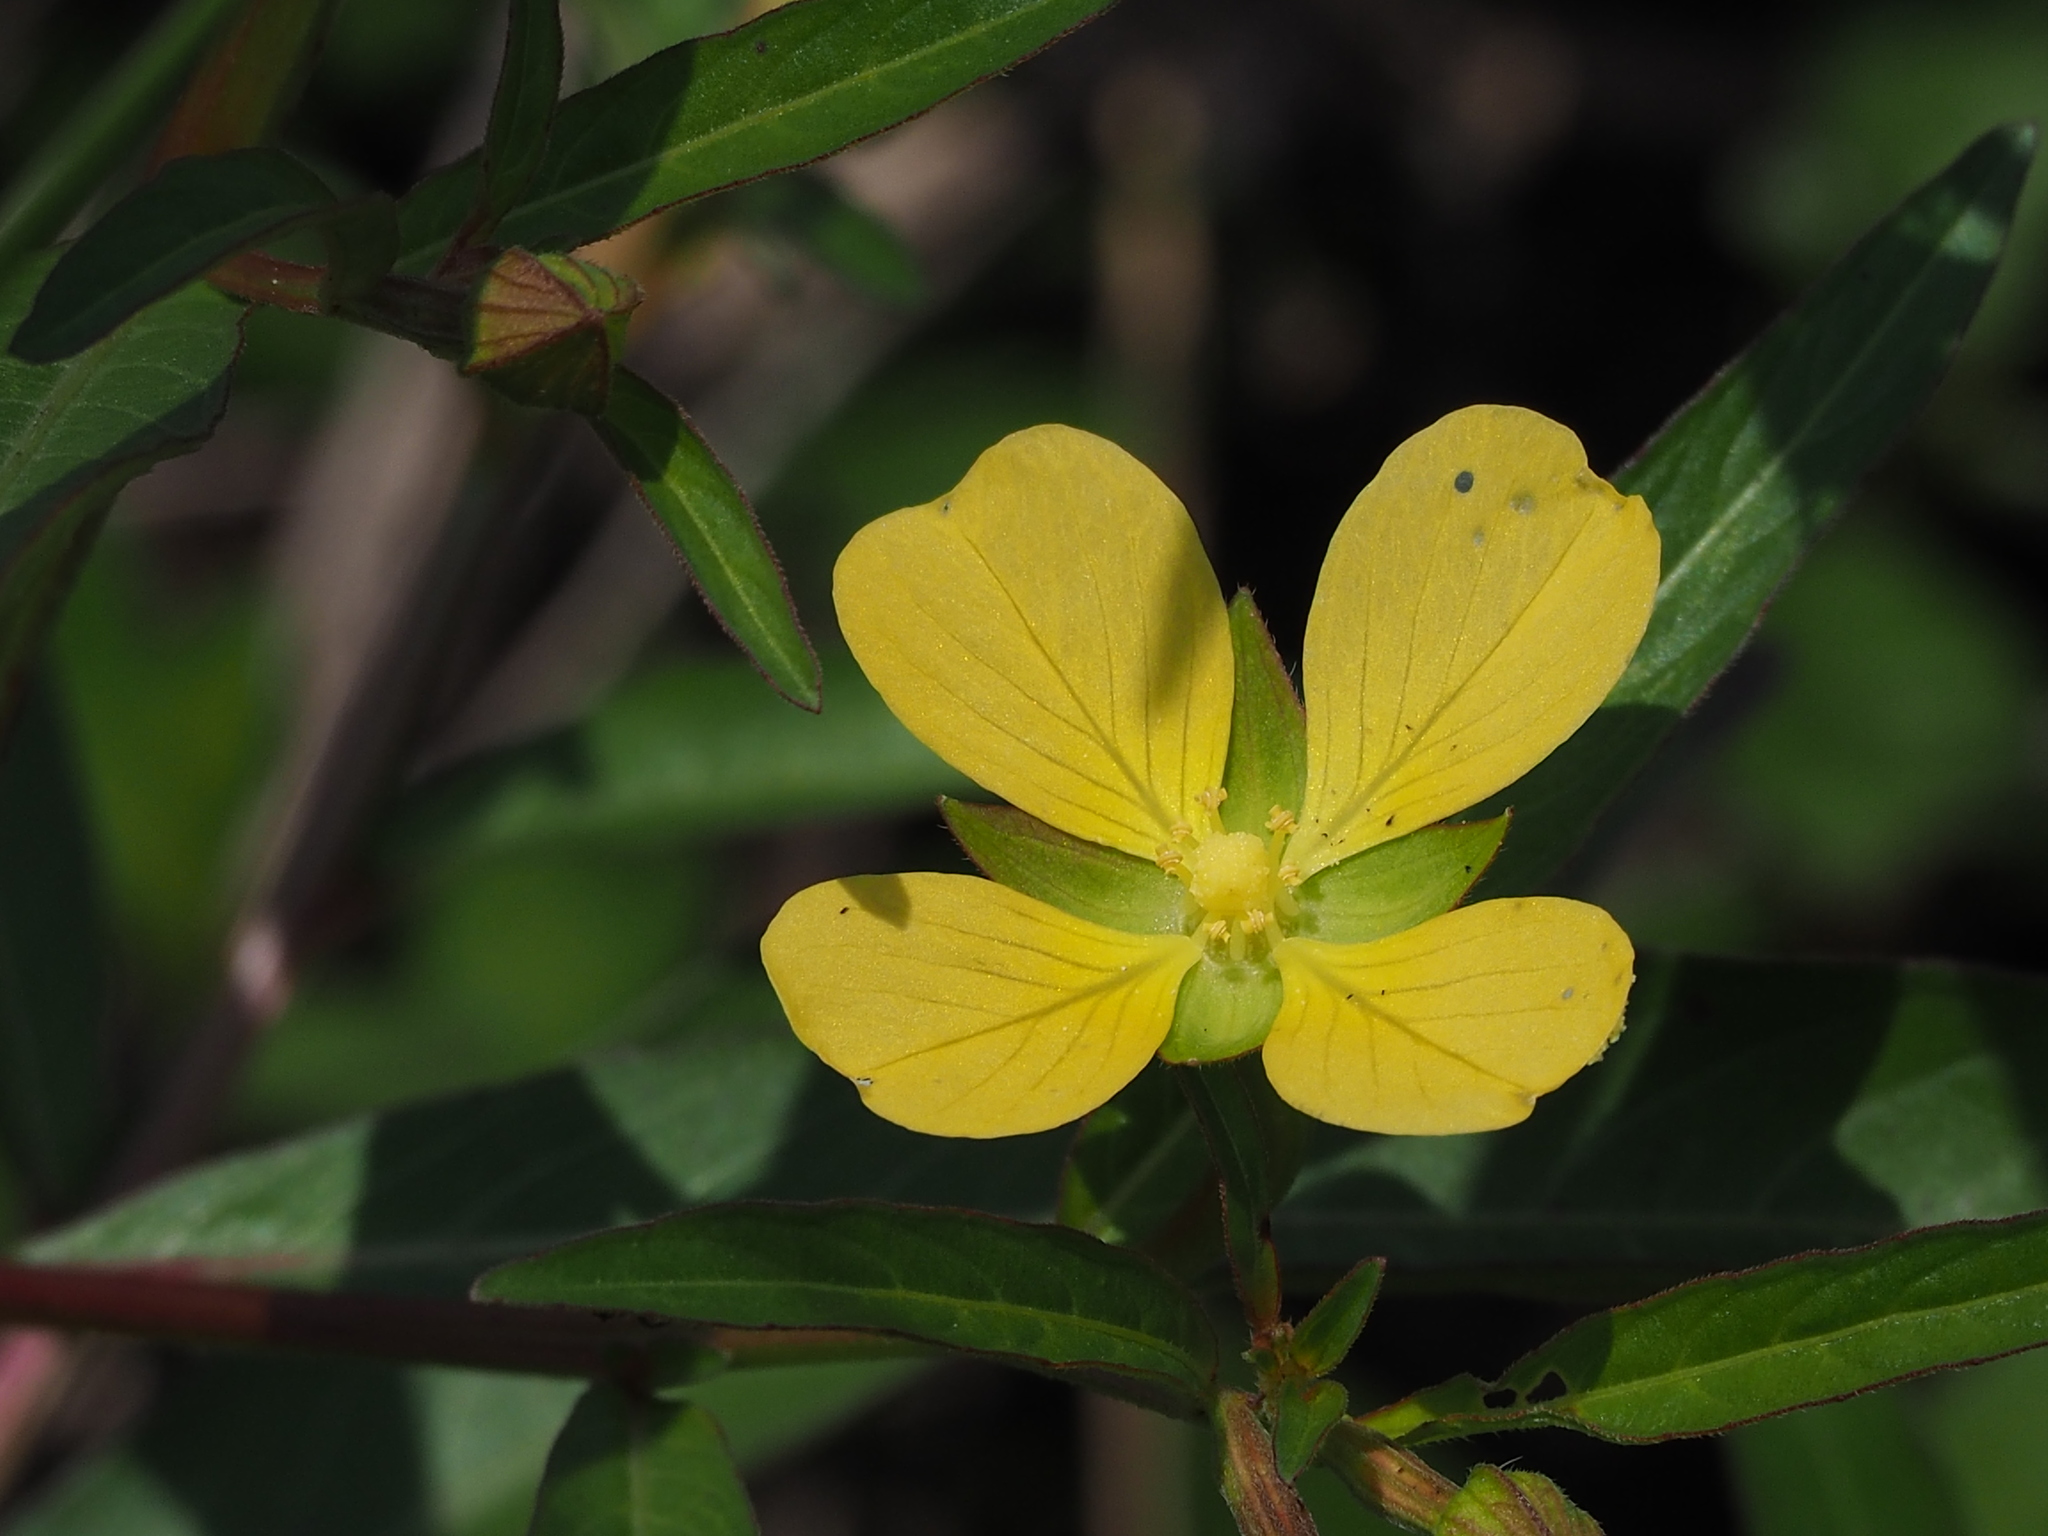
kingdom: Plantae
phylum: Tracheophyta
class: Magnoliopsida
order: Myrtales
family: Onagraceae
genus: Ludwigia
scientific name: Ludwigia octovalvis
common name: Water-primrose
